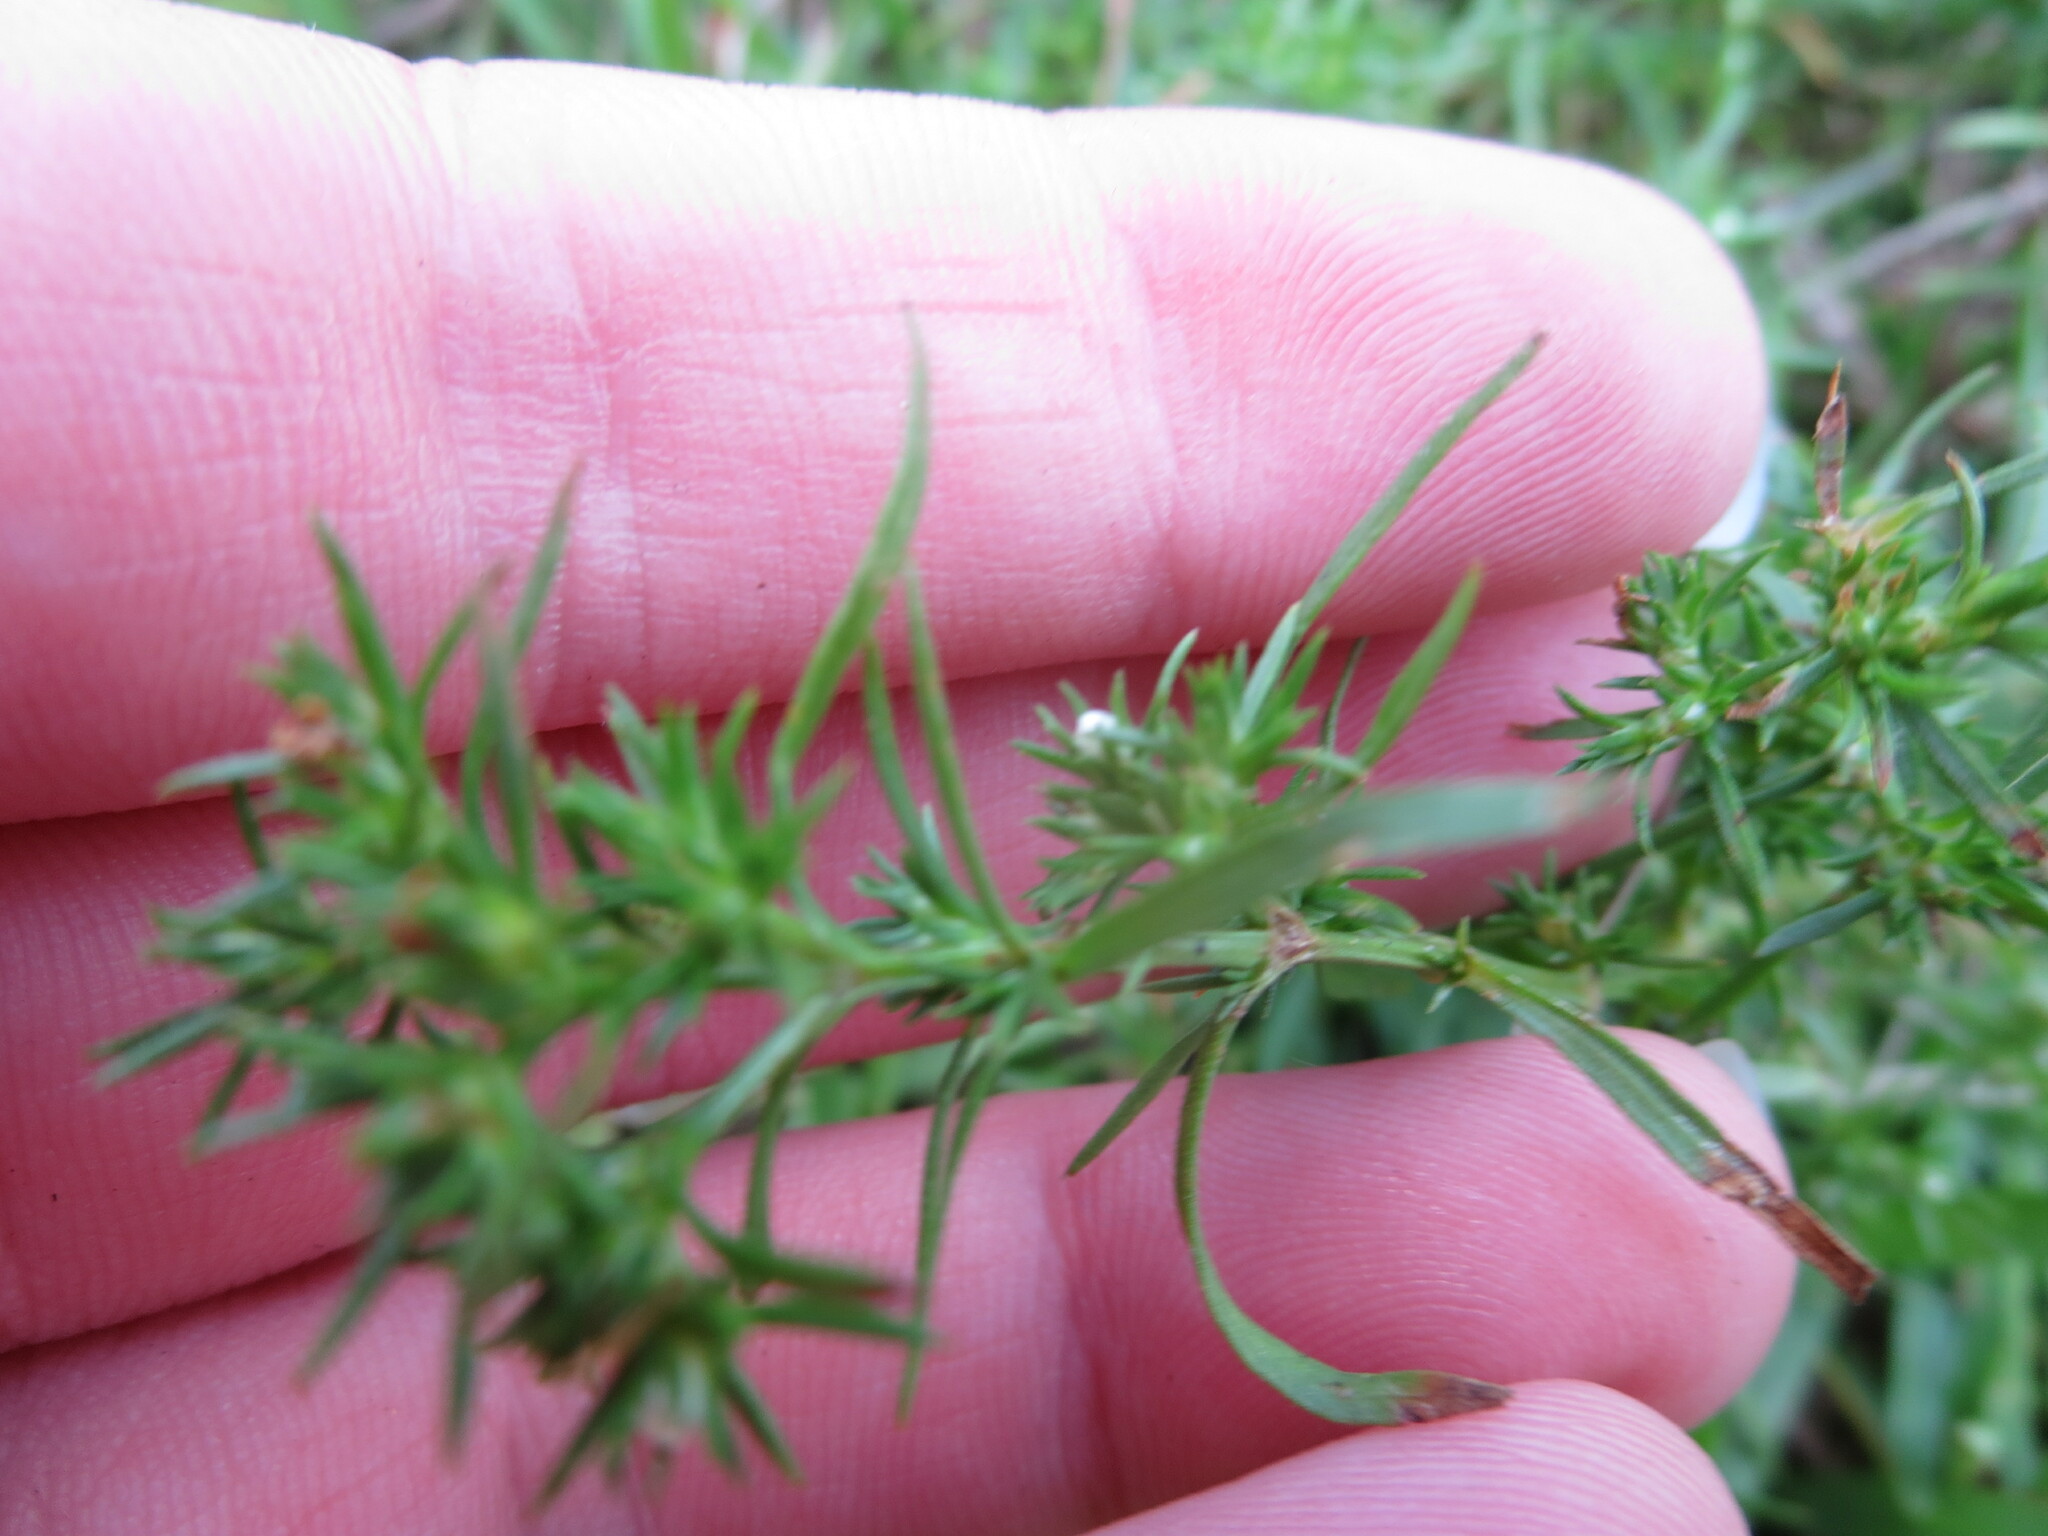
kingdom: Plantae
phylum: Tracheophyta
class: Magnoliopsida
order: Lamiales
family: Tetrachondraceae
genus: Polypremum
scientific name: Polypremum procumbens
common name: Juniper-leaf
